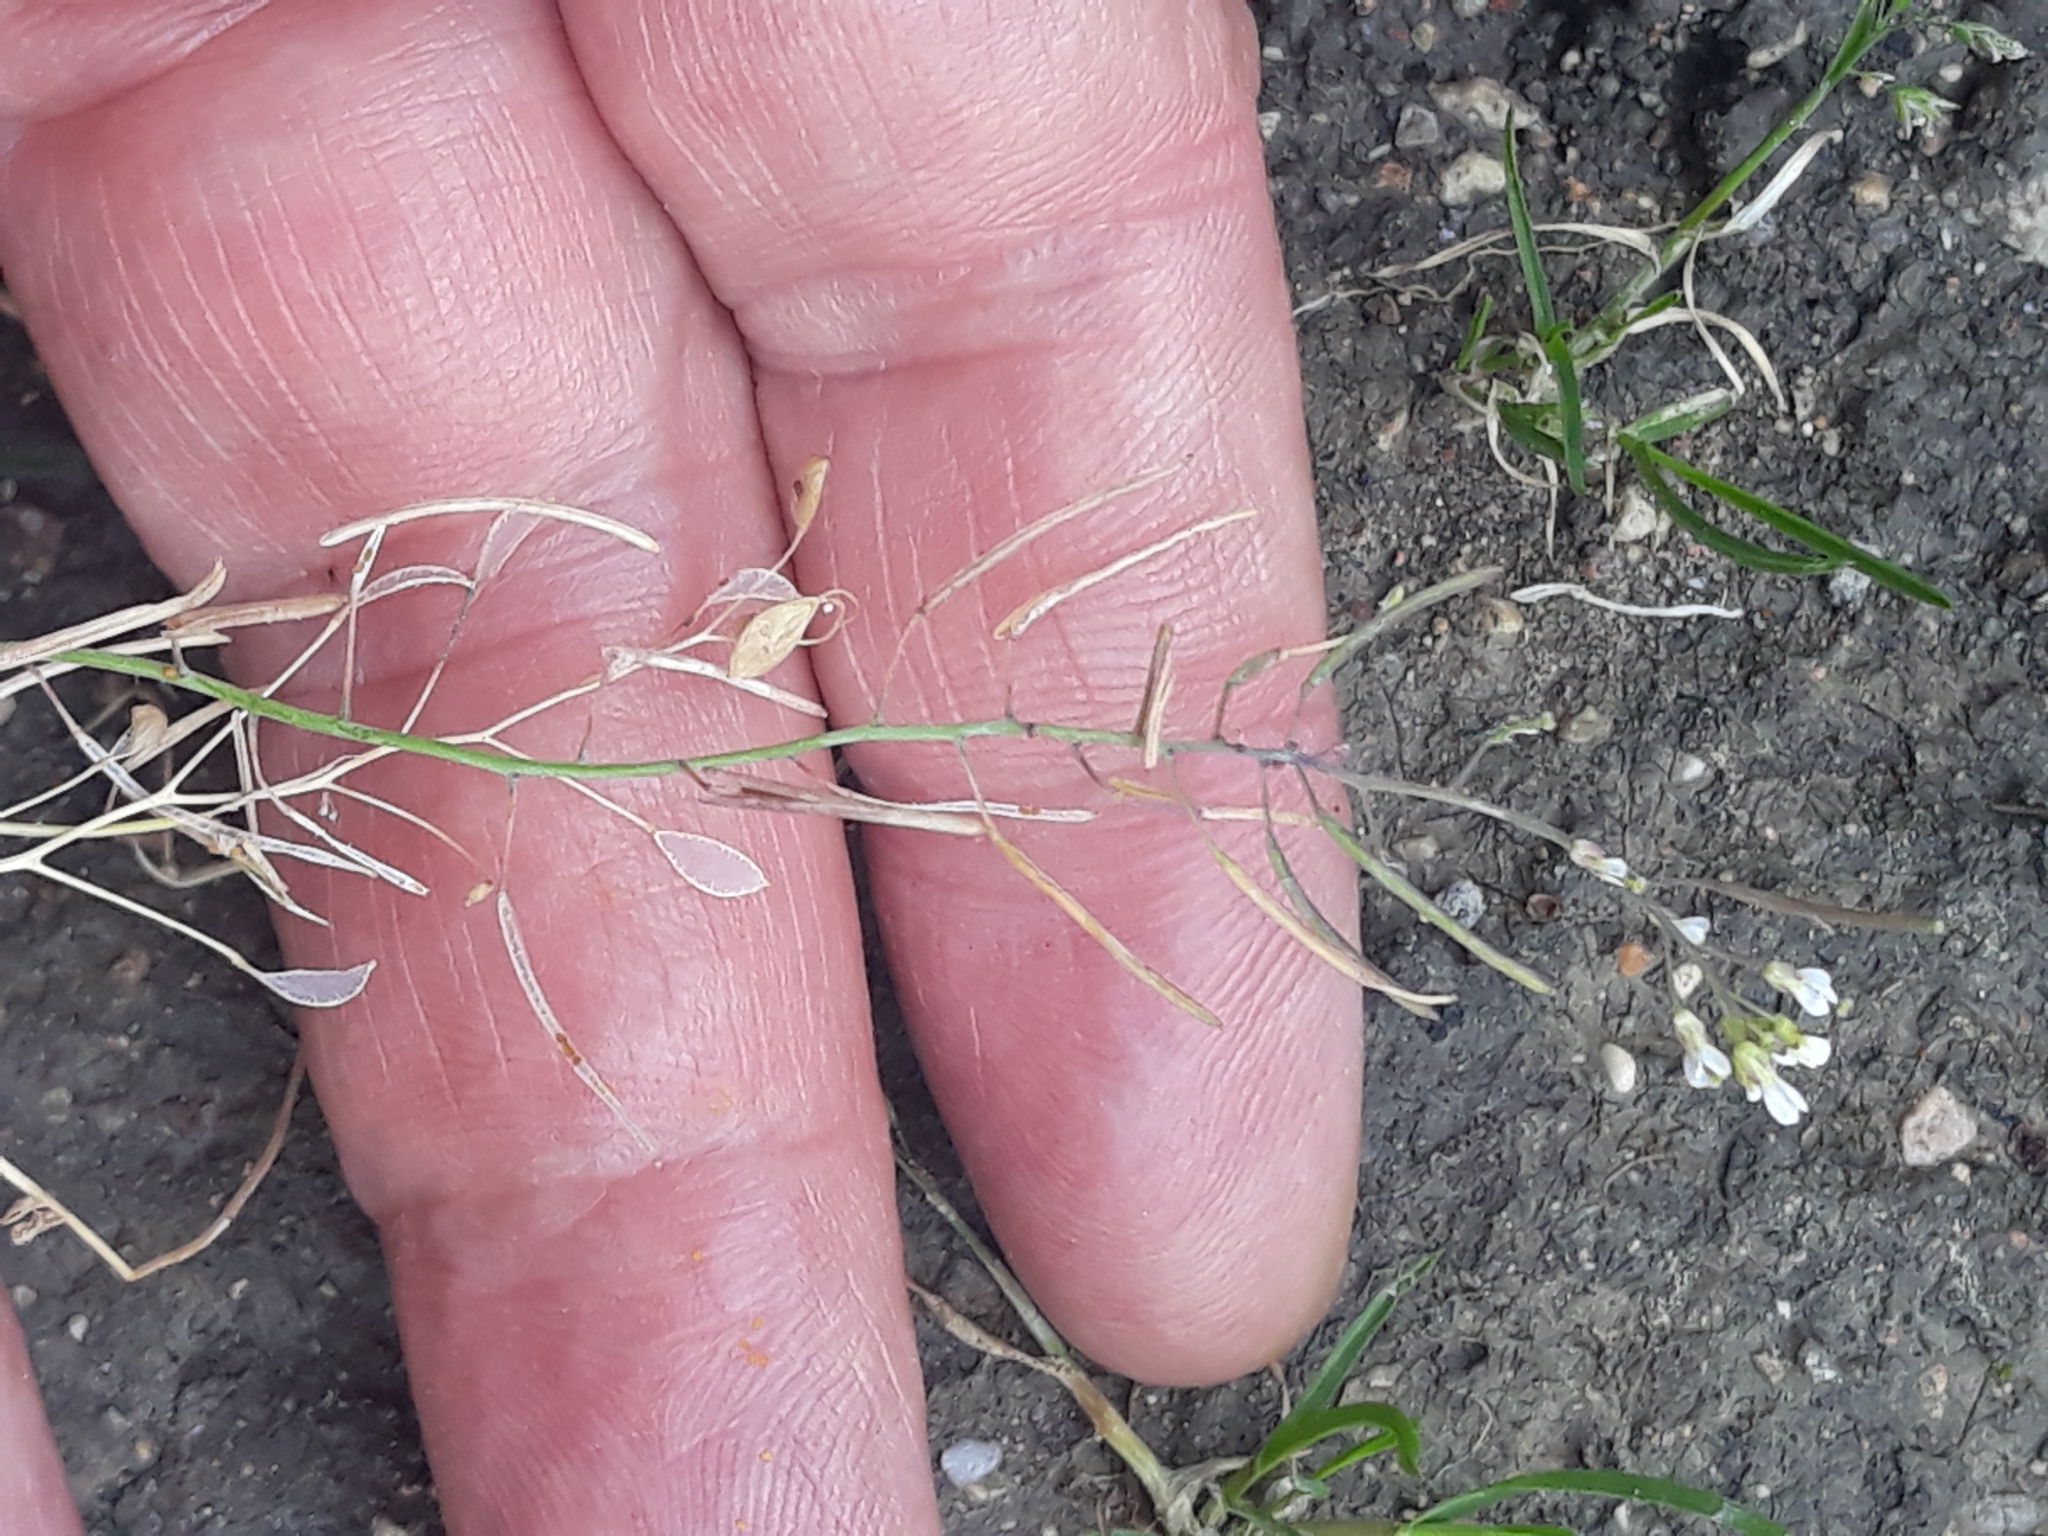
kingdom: Plantae
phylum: Tracheophyta
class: Magnoliopsida
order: Brassicales
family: Brassicaceae
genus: Arabidopsis
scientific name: Arabidopsis thaliana
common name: Thale cress
